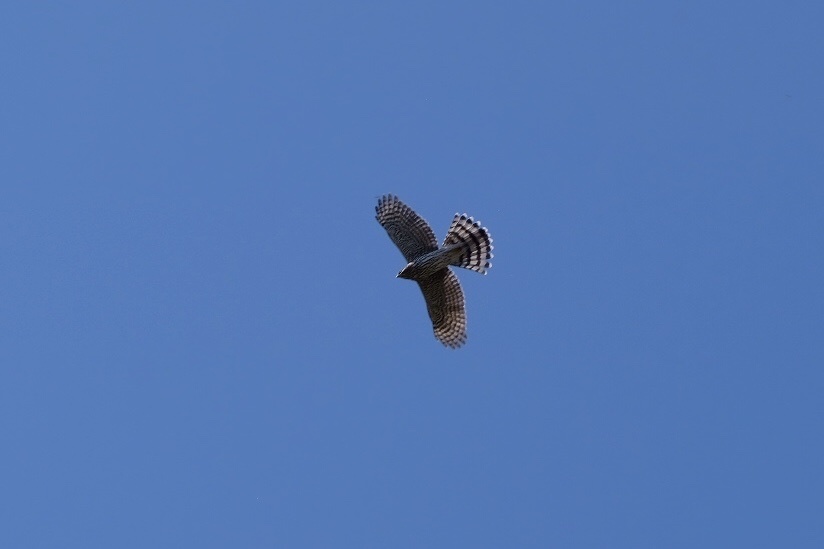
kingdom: Animalia
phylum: Chordata
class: Aves
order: Accipitriformes
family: Accipitridae
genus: Accipiter
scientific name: Accipiter cooperii
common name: Cooper's hawk
